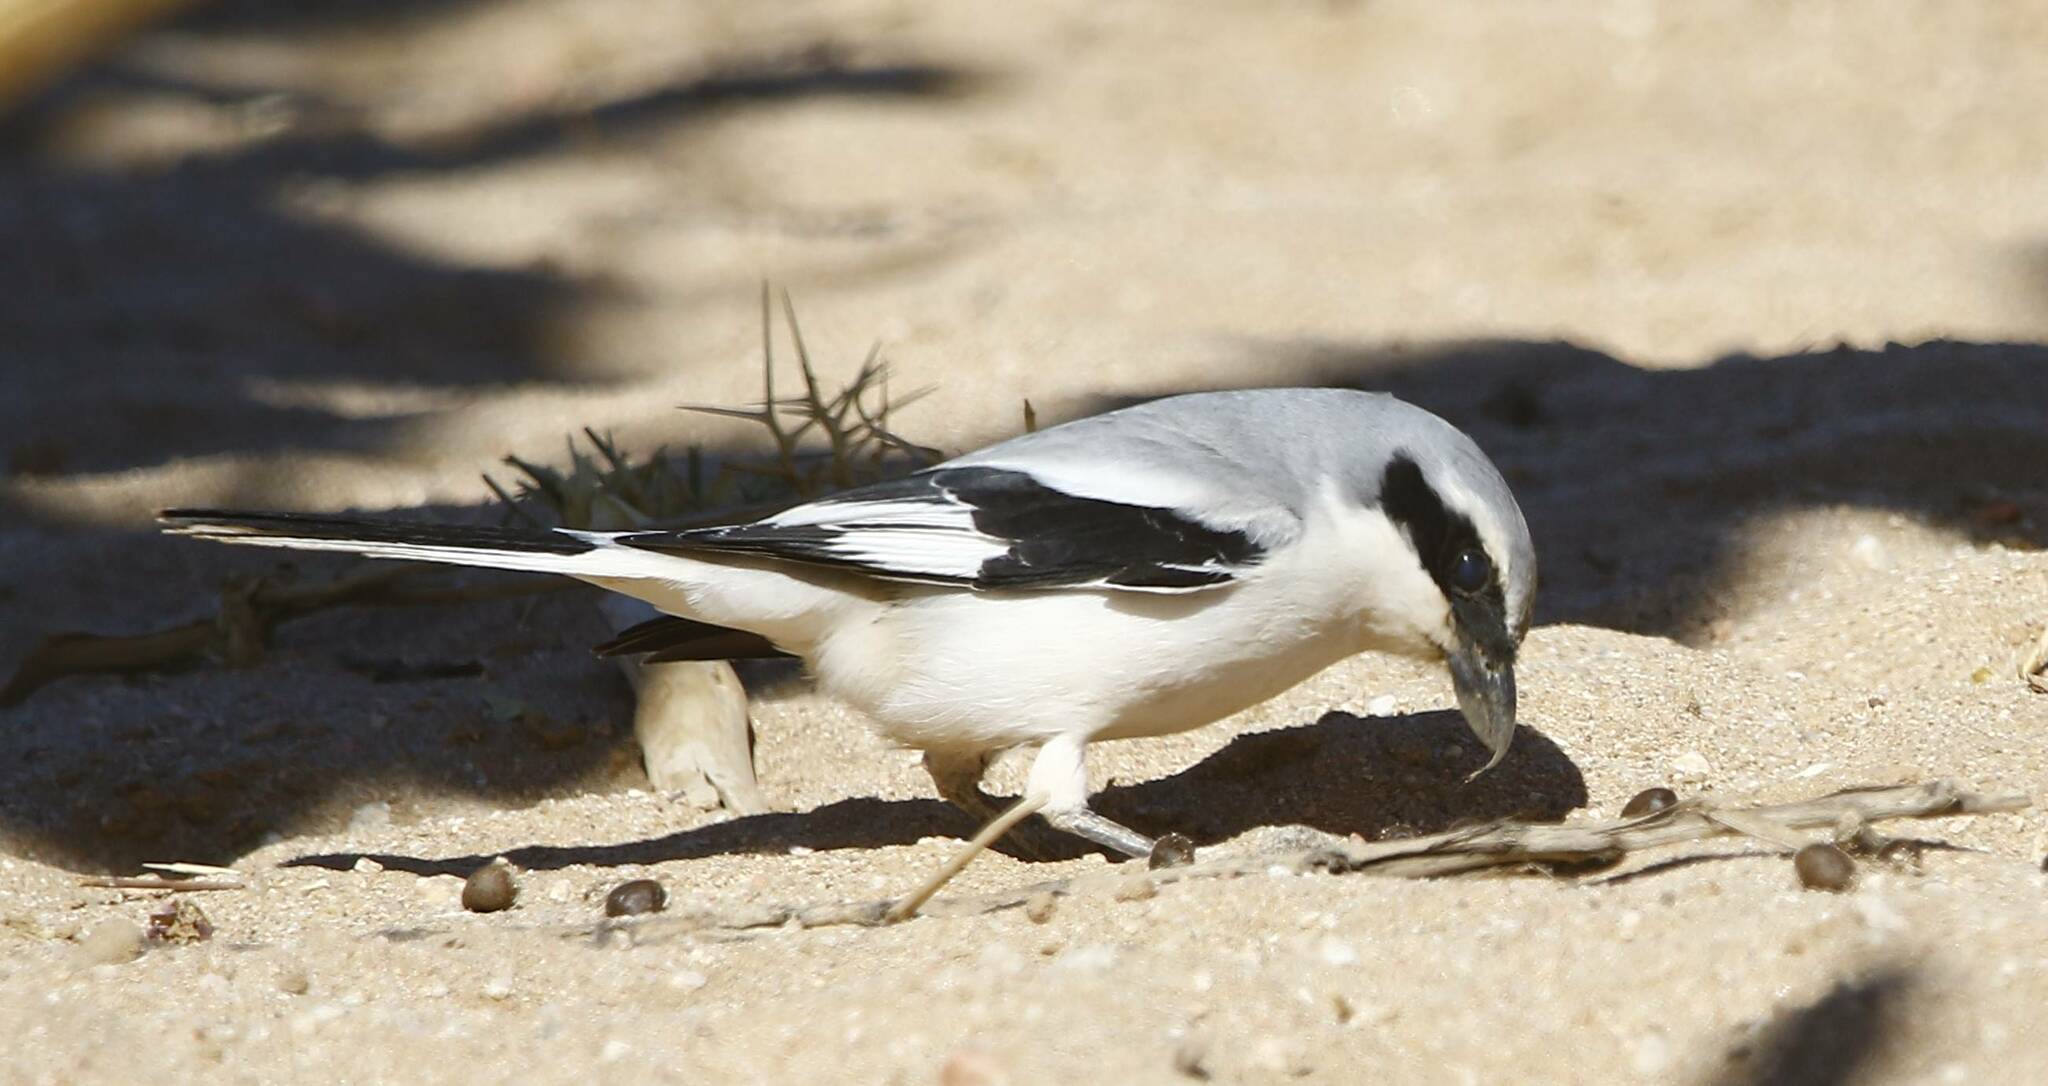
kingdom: Animalia
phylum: Chordata
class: Aves
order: Passeriformes
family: Laniidae
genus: Lanius
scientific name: Lanius excubitor
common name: Great grey shrike
